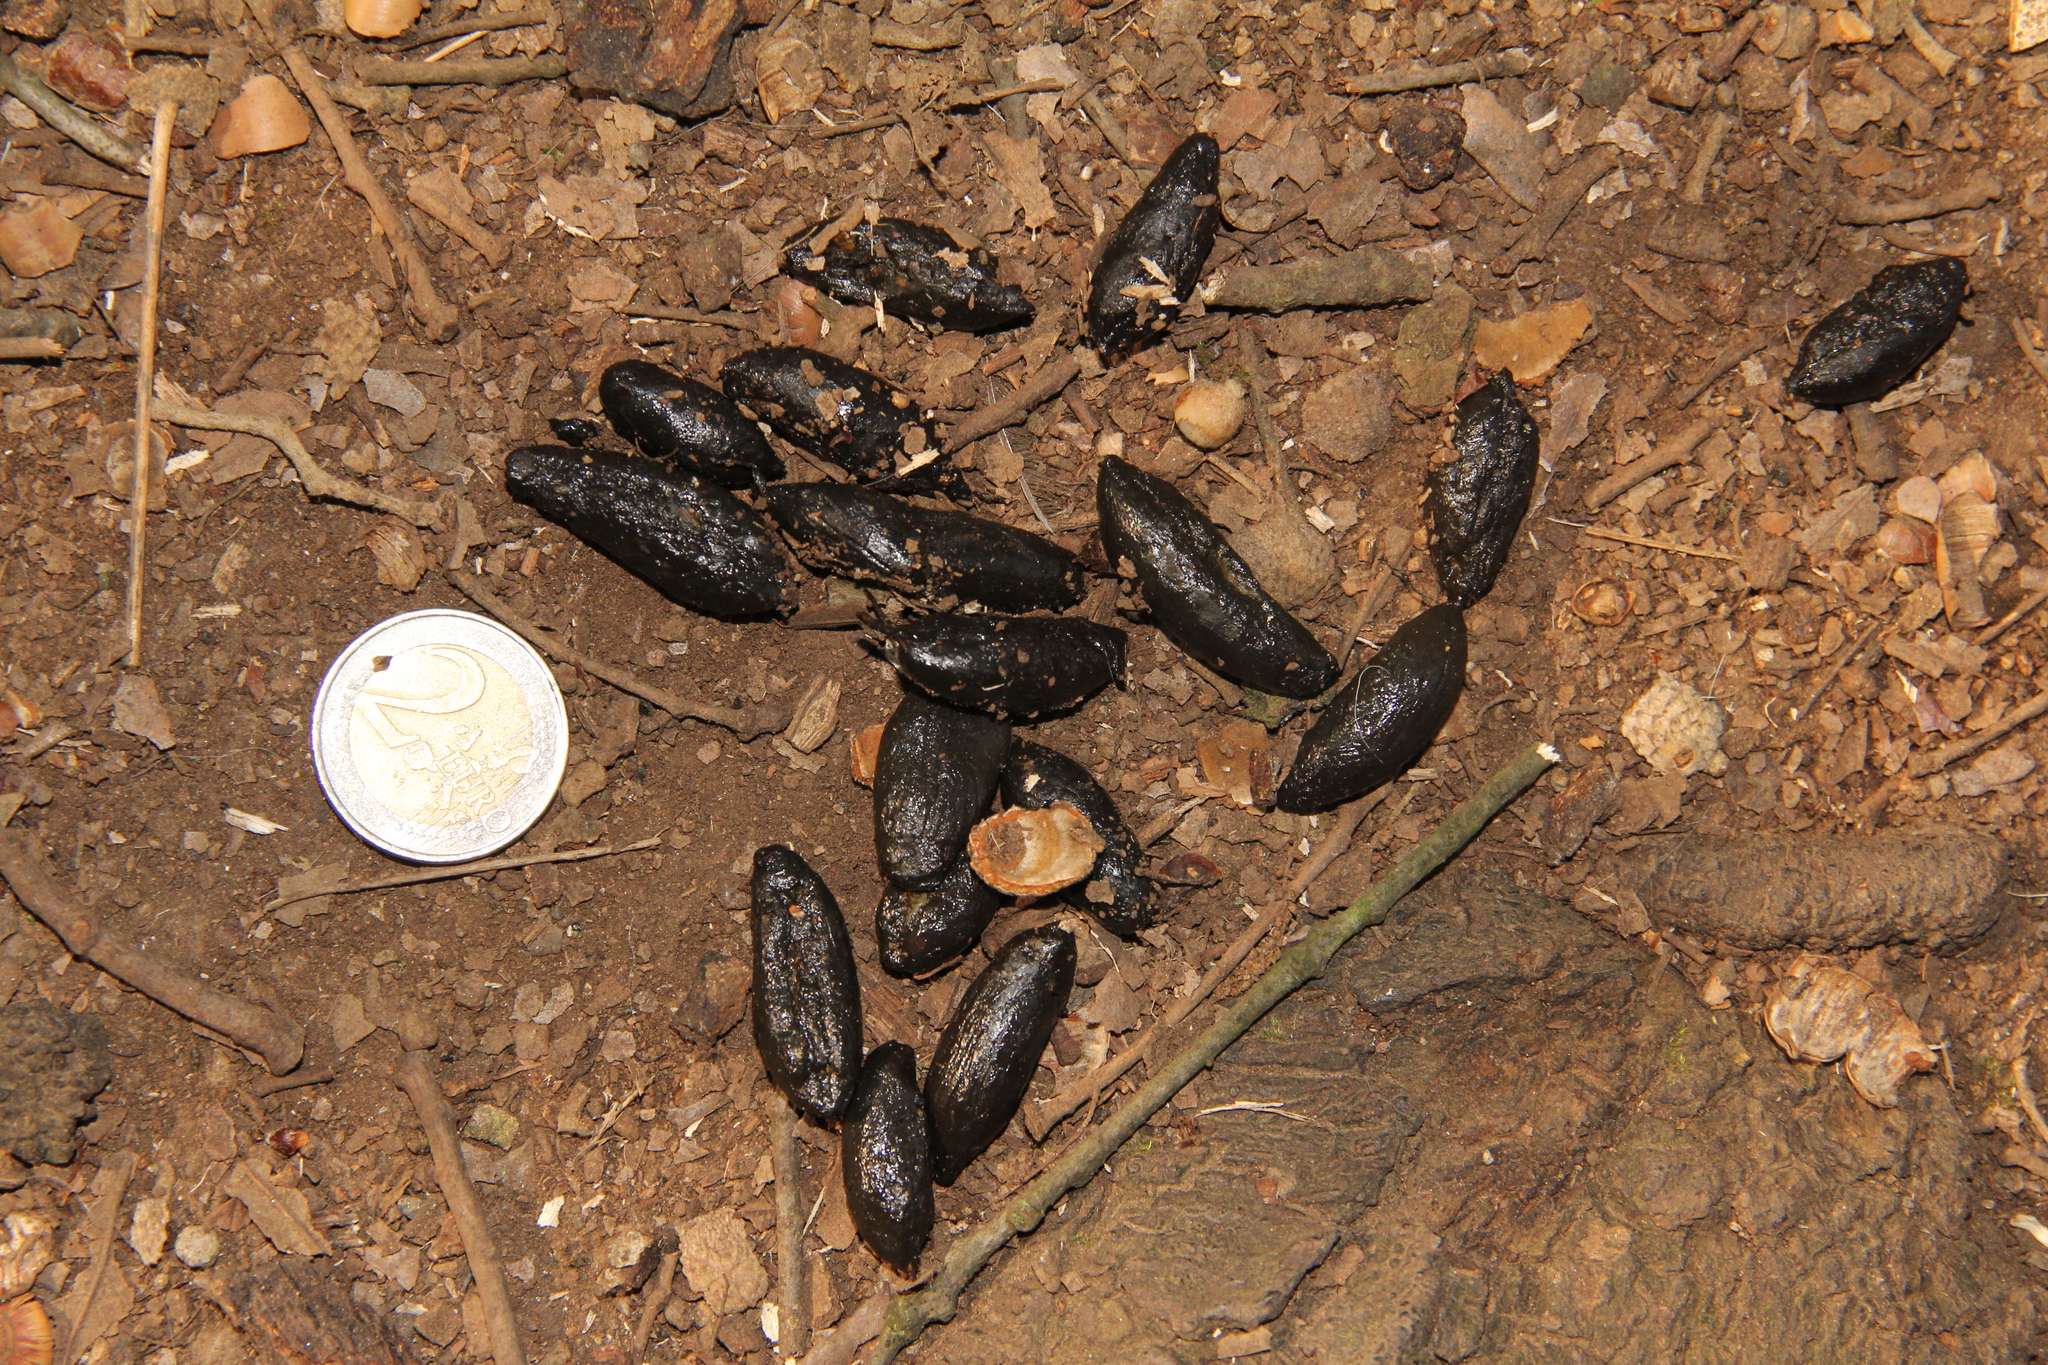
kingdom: Animalia
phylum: Chordata
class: Mammalia
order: Rodentia
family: Hystricidae
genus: Hystrix
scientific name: Hystrix cristata
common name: Crested porcupine
